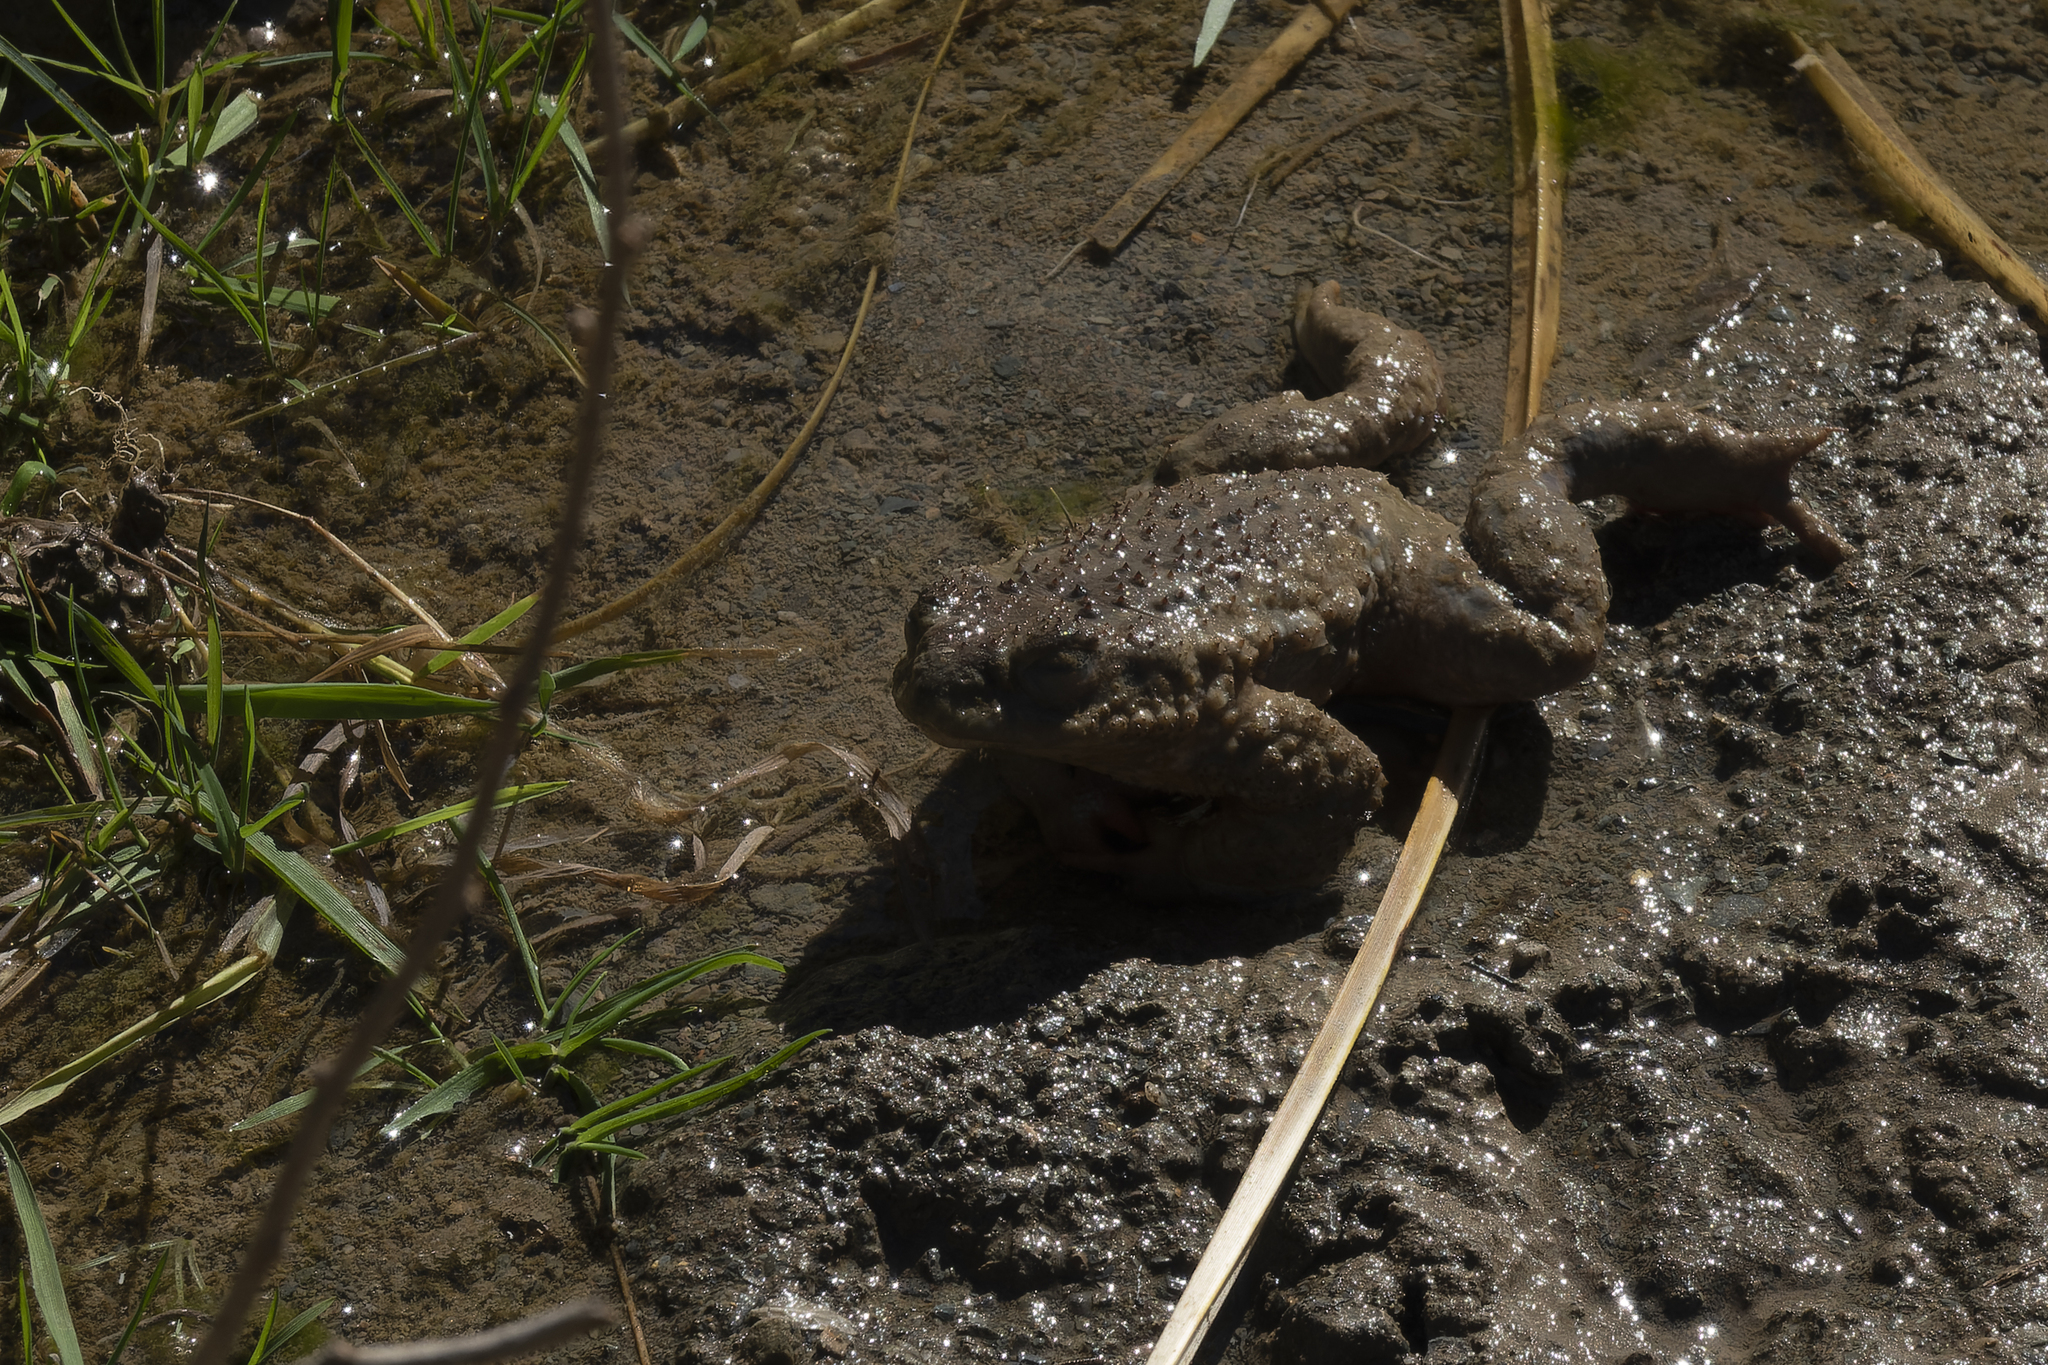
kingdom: Animalia
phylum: Chordata
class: Amphibia
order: Anura
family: Bufonidae
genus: Rhinella
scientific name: Rhinella spinulosa
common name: Warty toad
